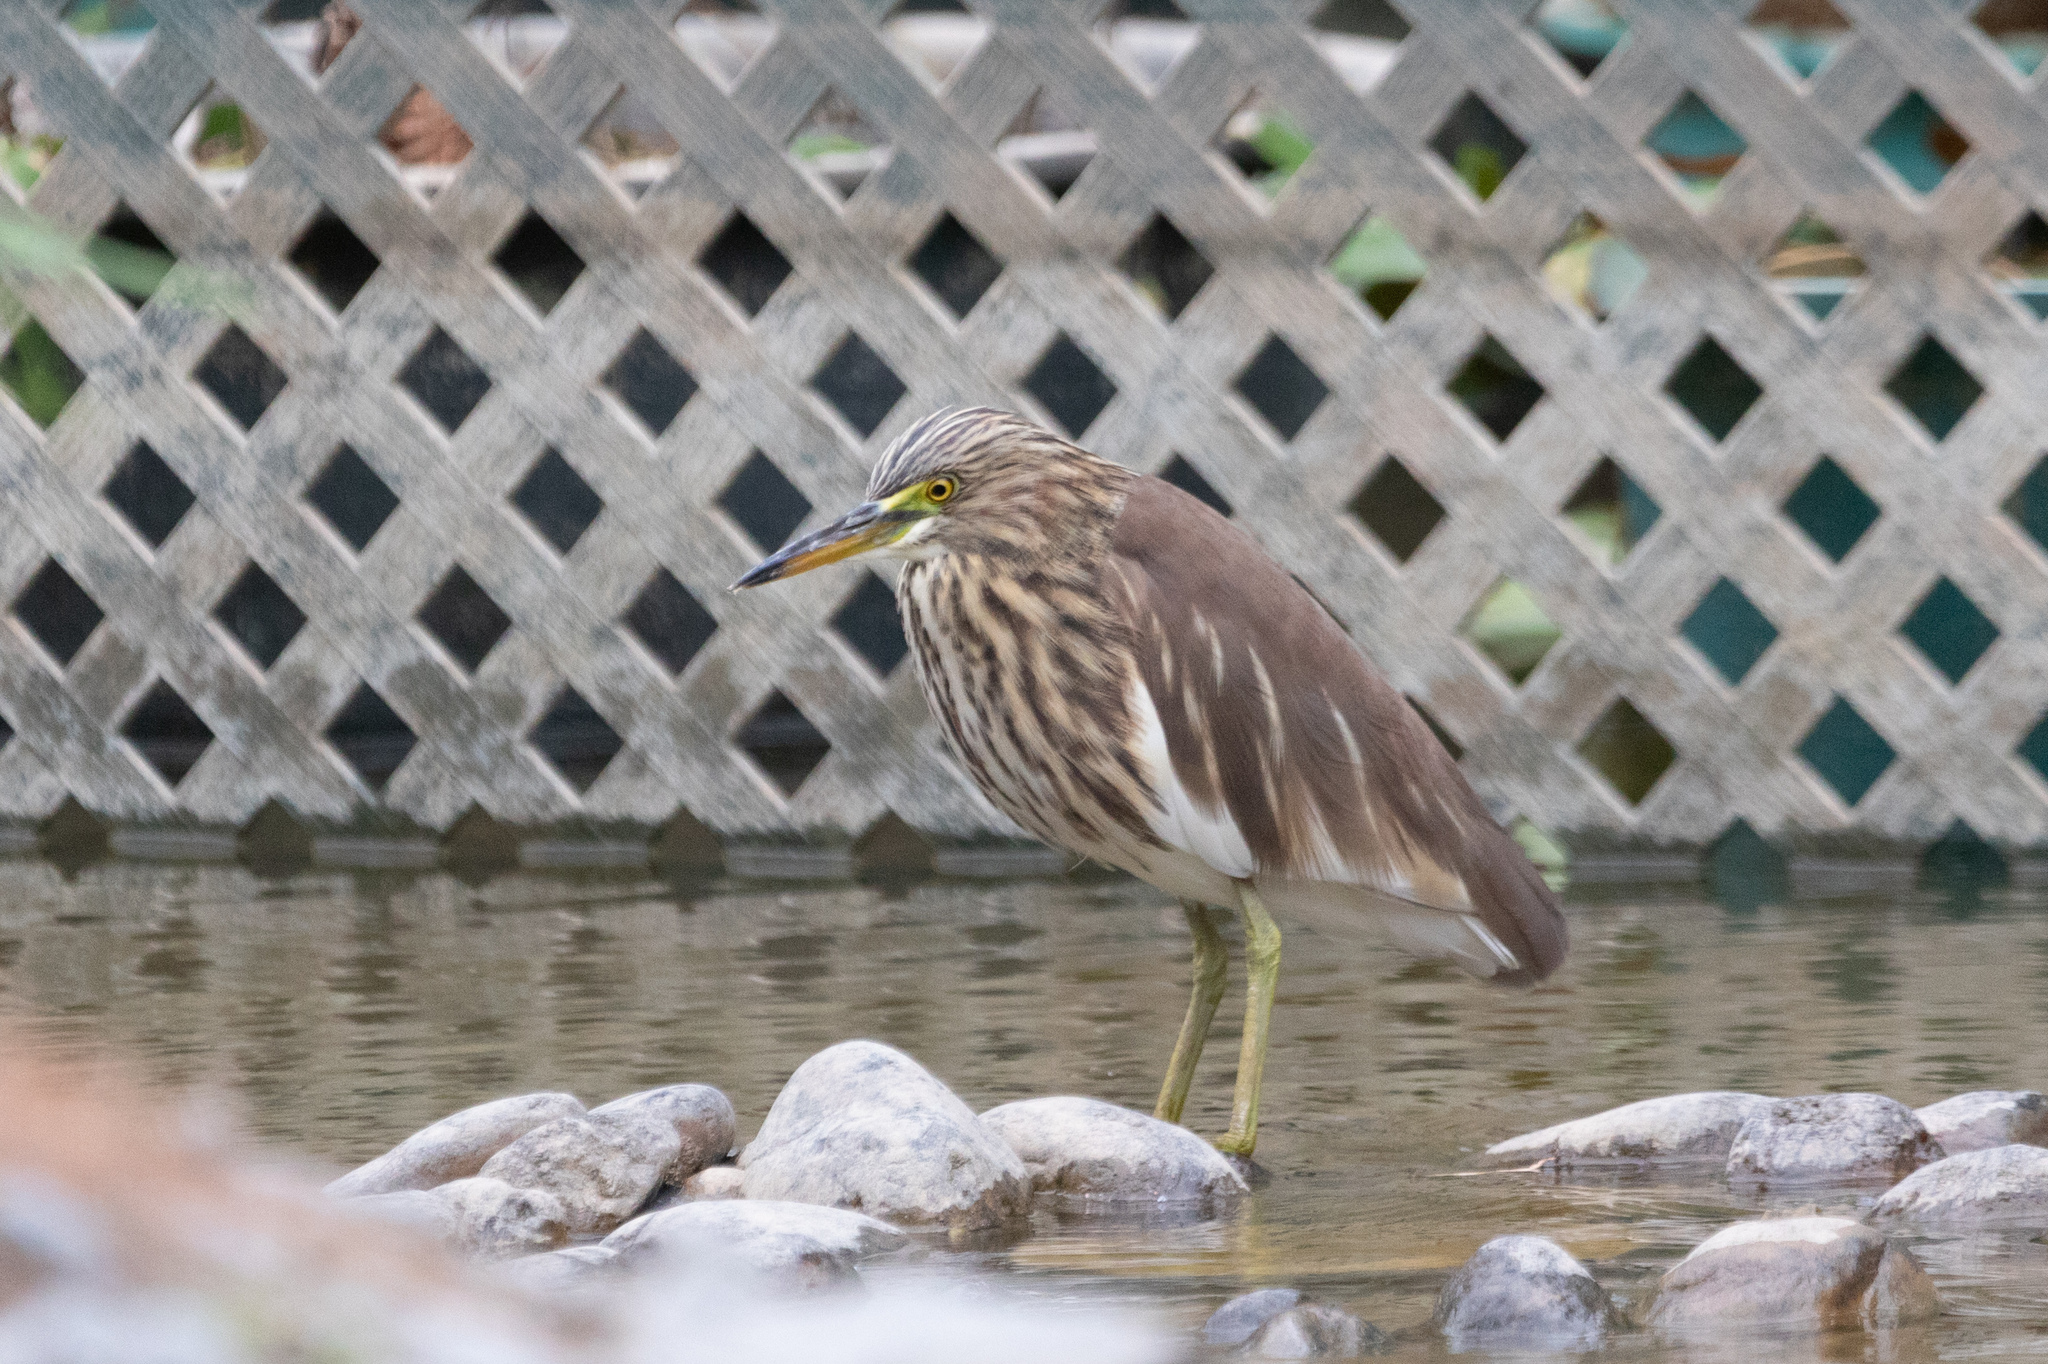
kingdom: Animalia
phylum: Chordata
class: Aves
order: Pelecaniformes
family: Ardeidae
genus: Ardeola
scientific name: Ardeola bacchus
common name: Chinese pond heron
